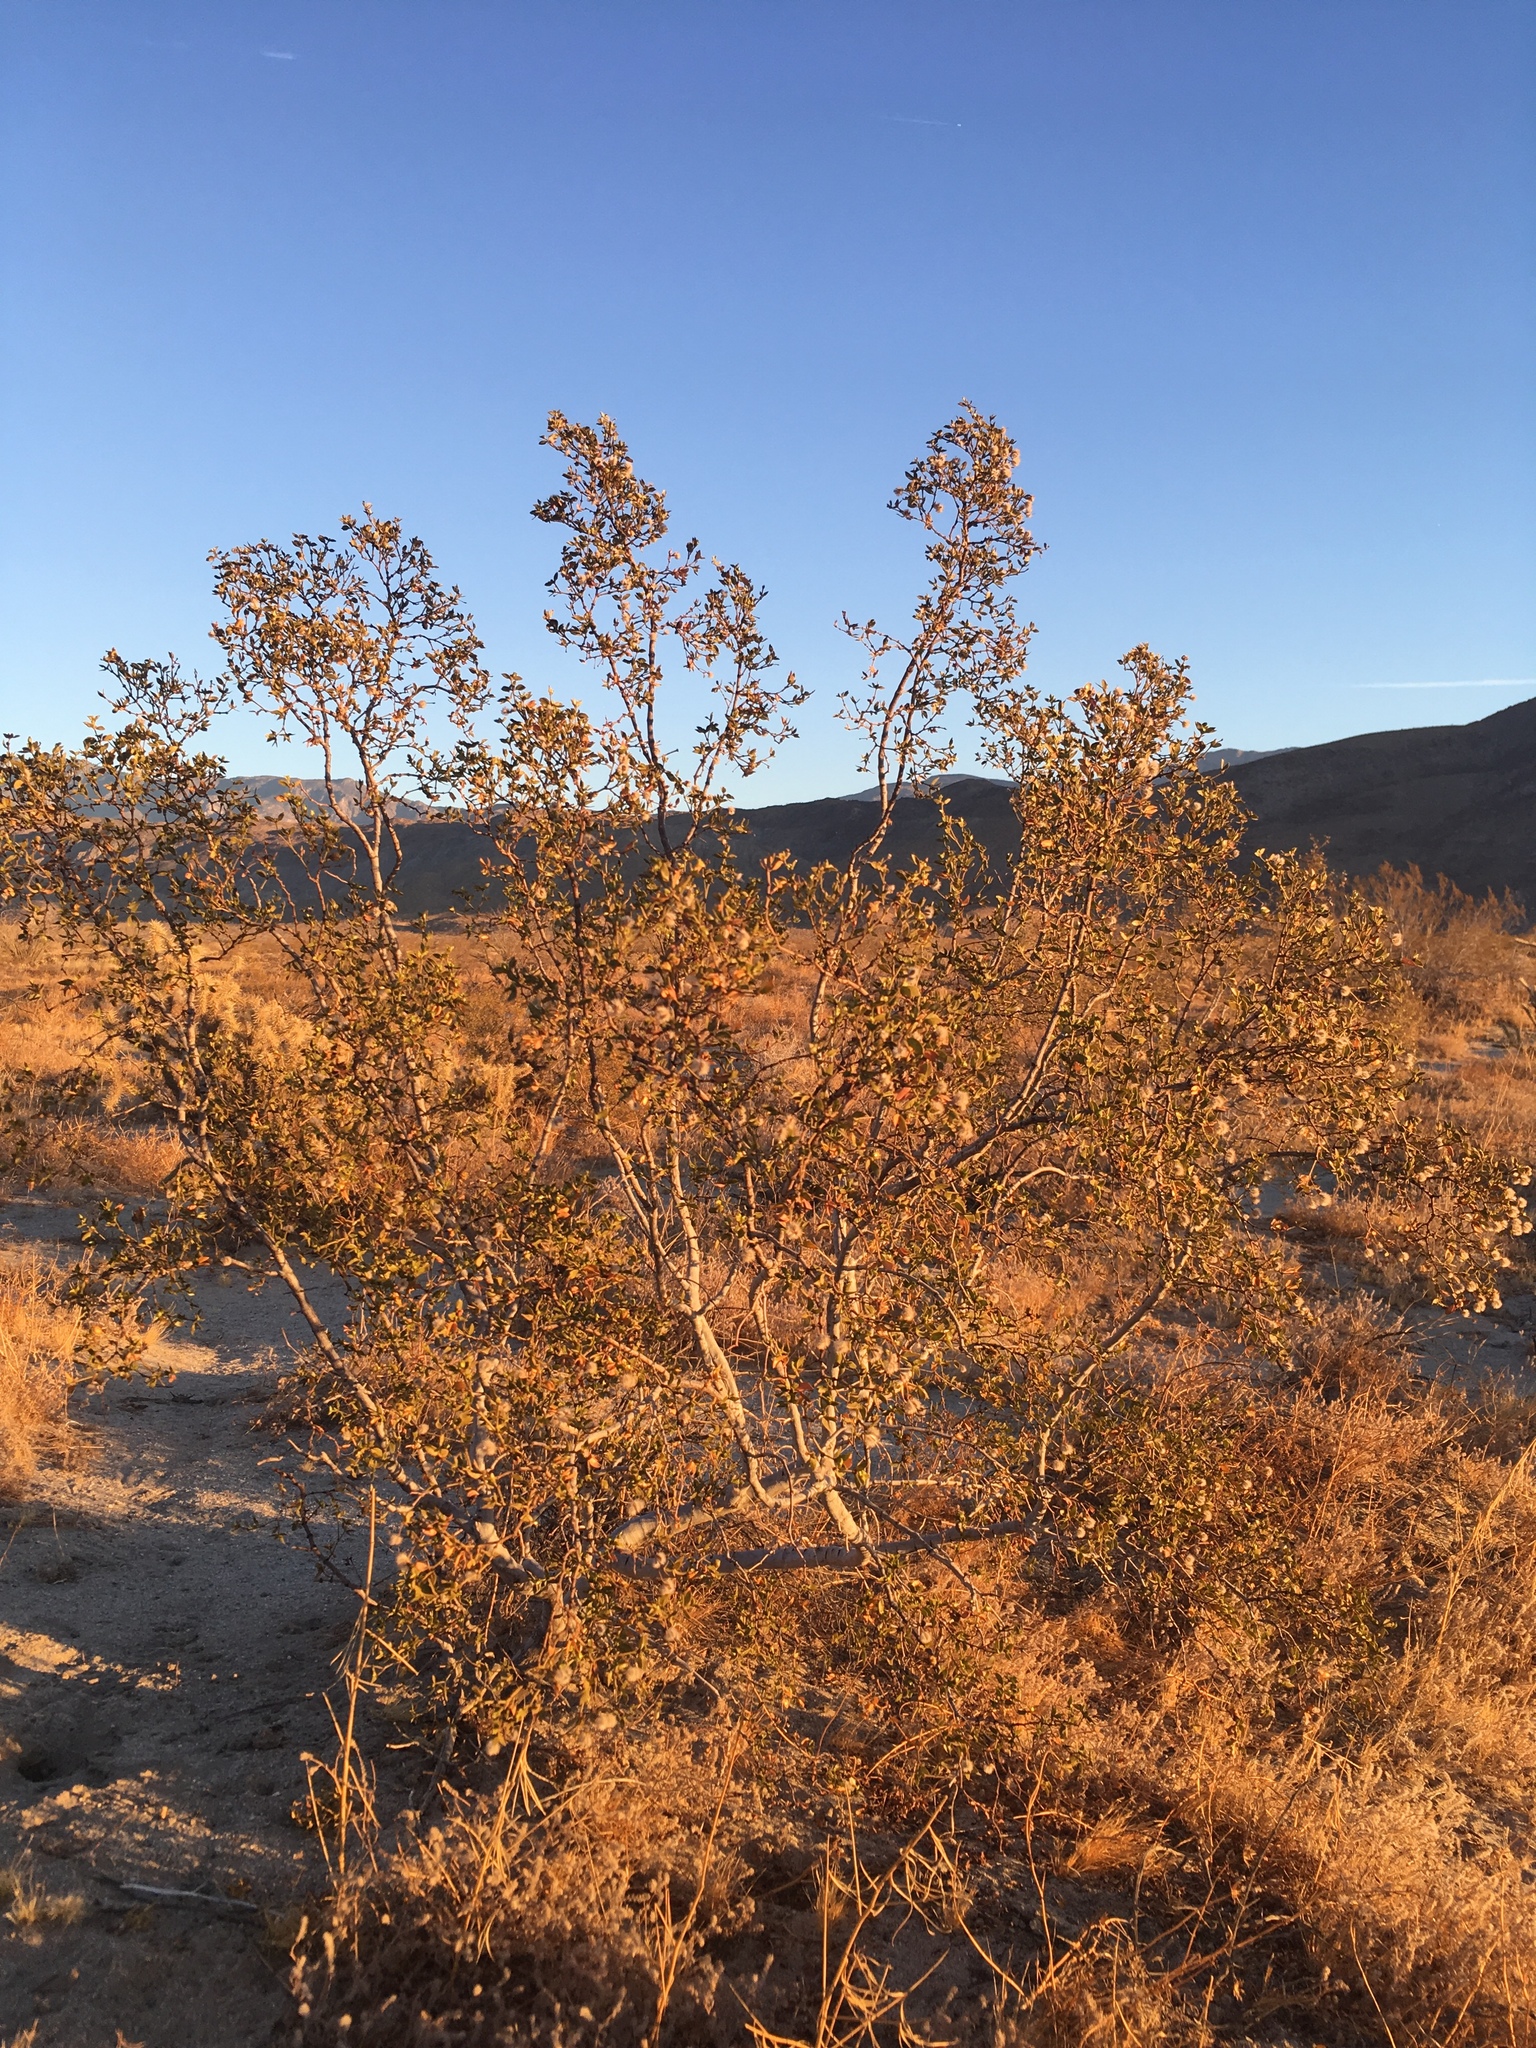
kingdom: Plantae
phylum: Tracheophyta
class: Magnoliopsida
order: Zygophyllales
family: Zygophyllaceae
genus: Larrea
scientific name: Larrea tridentata
